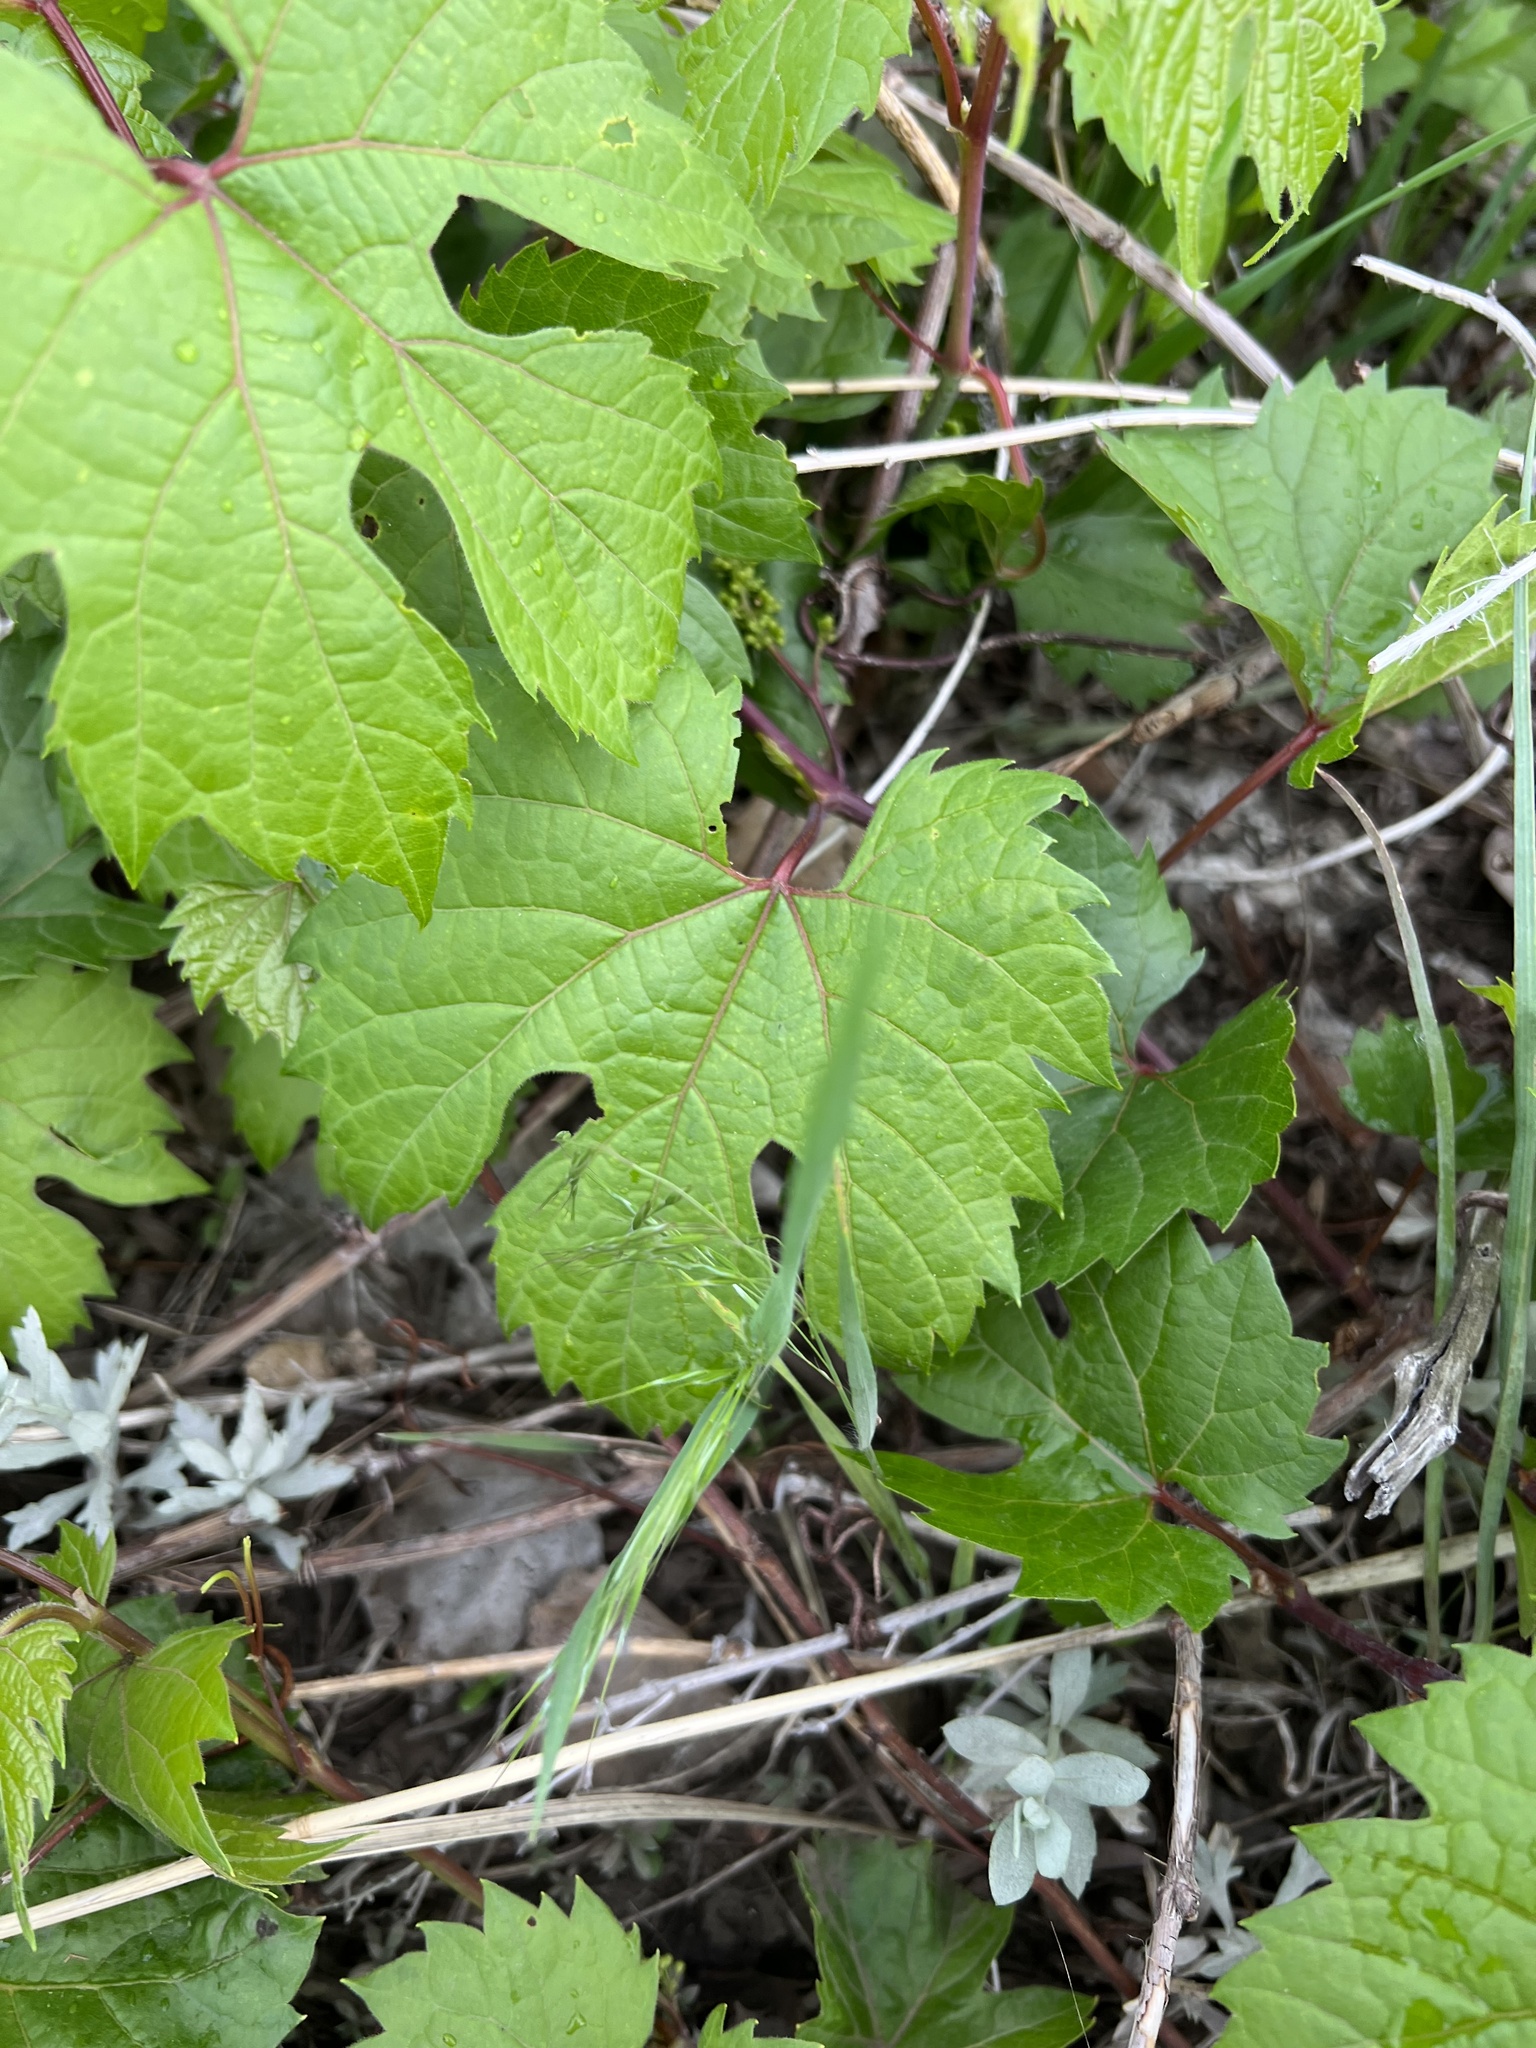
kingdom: Plantae
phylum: Tracheophyta
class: Magnoliopsida
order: Vitales
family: Vitaceae
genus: Vitis
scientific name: Vitis riparia
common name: Frost grape
